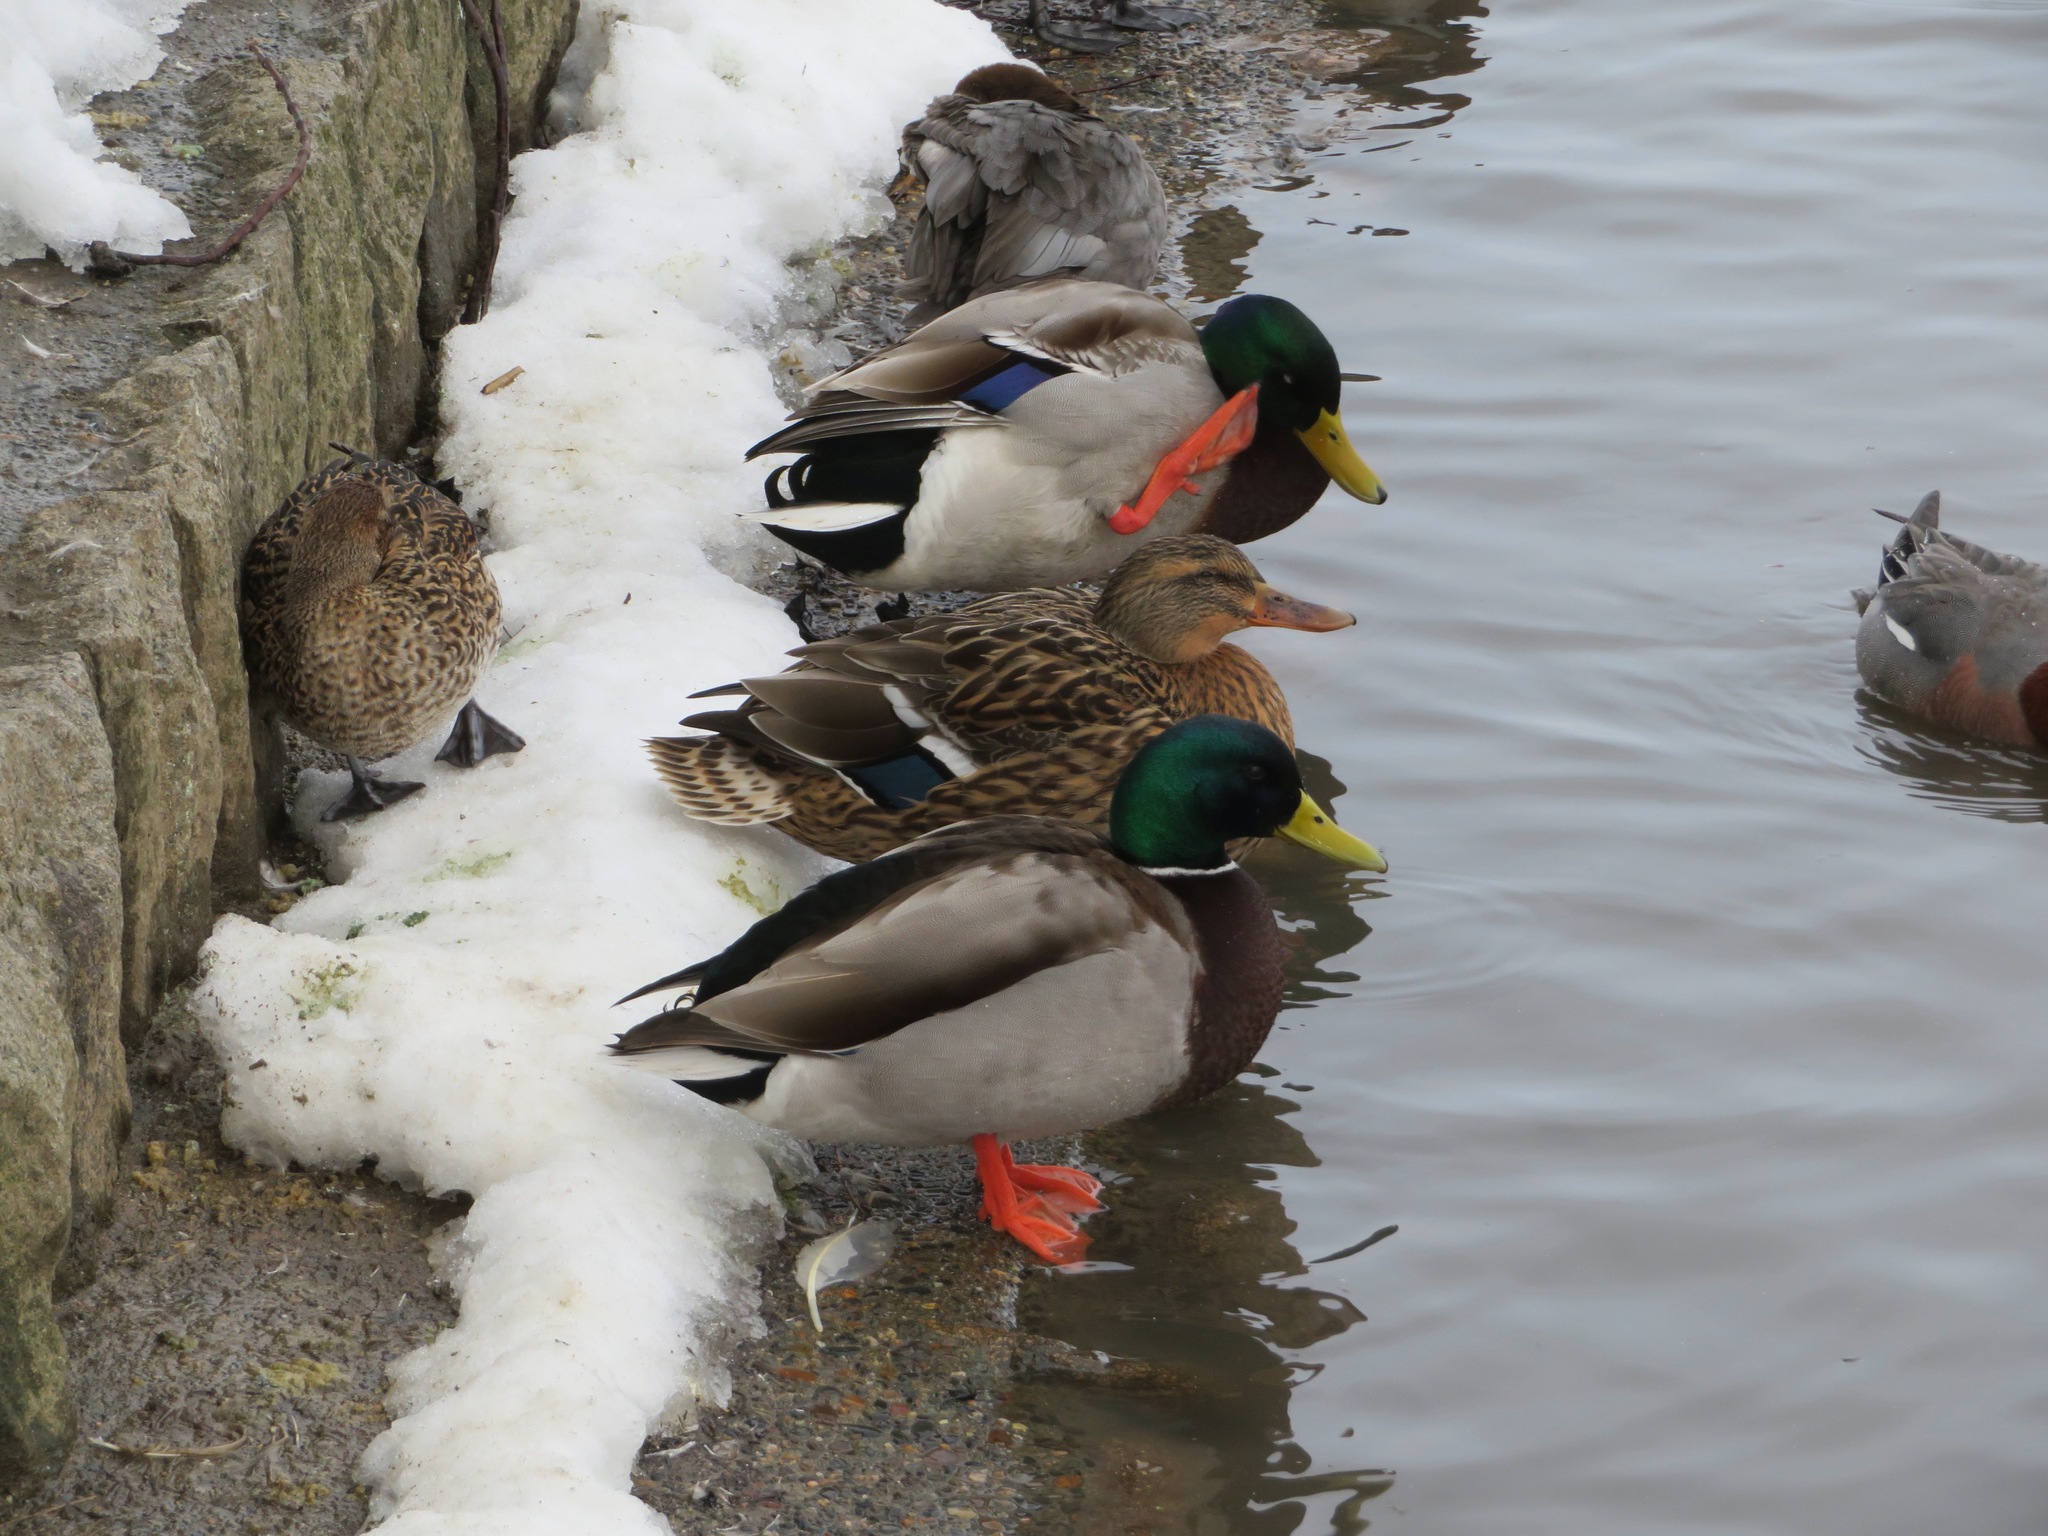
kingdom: Animalia
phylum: Chordata
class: Aves
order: Anseriformes
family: Anatidae
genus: Anas
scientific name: Anas platyrhynchos
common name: Mallard
